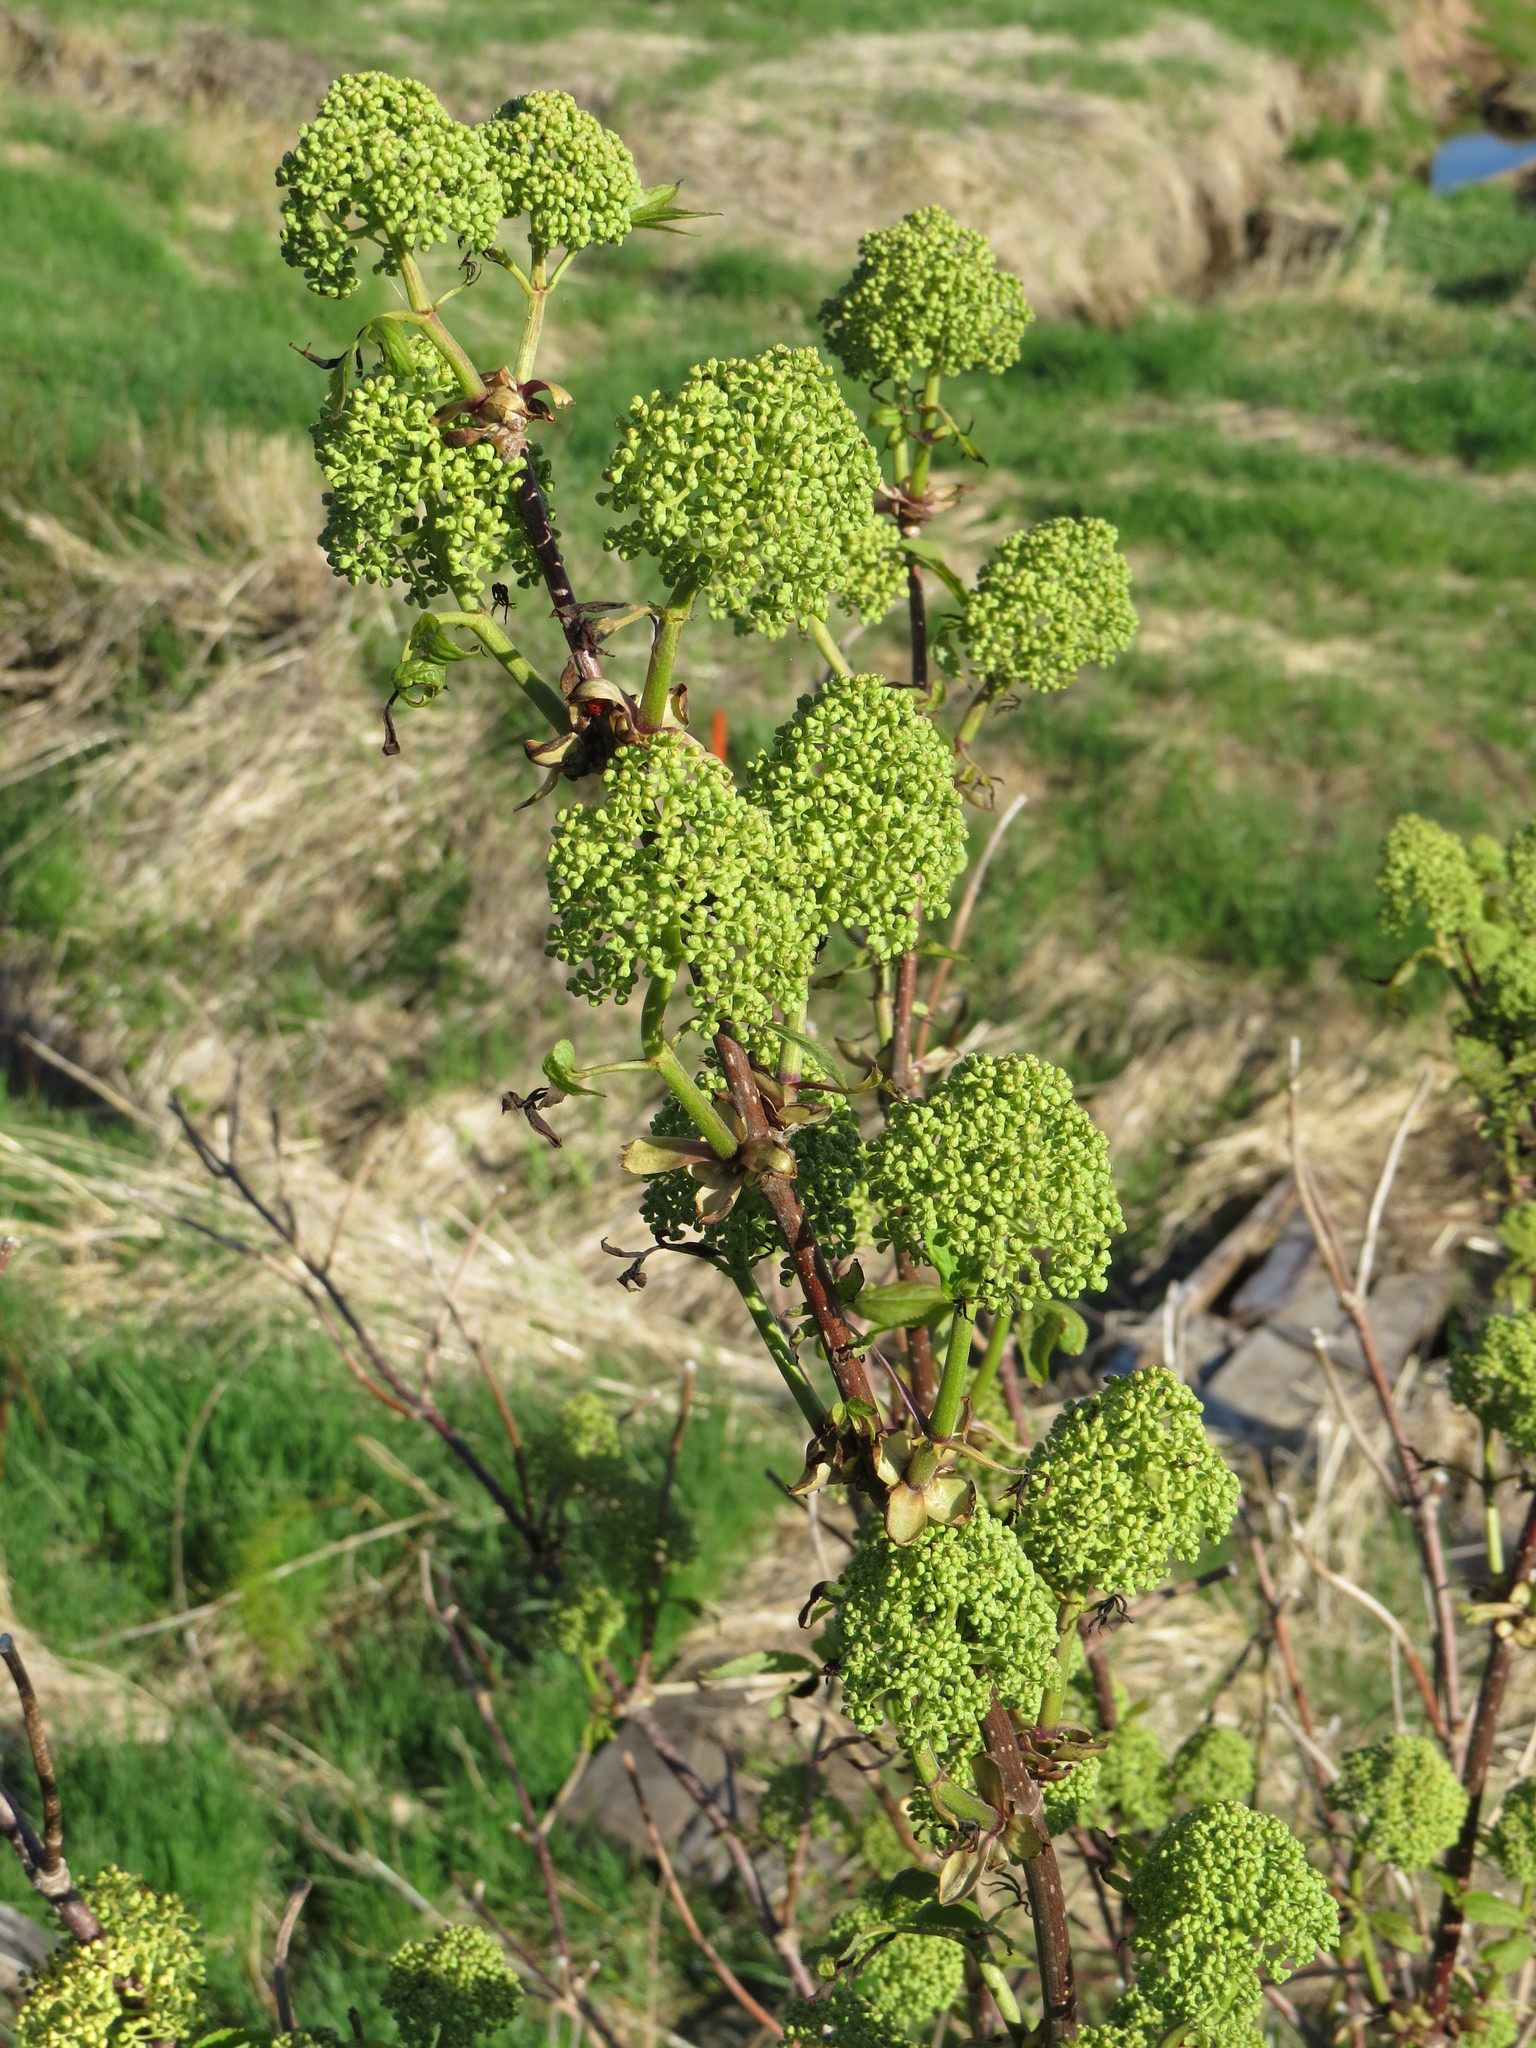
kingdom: Plantae
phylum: Tracheophyta
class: Magnoliopsida
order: Dipsacales
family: Viburnaceae
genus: Sambucus
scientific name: Sambucus racemosa
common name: Red-berried elder
